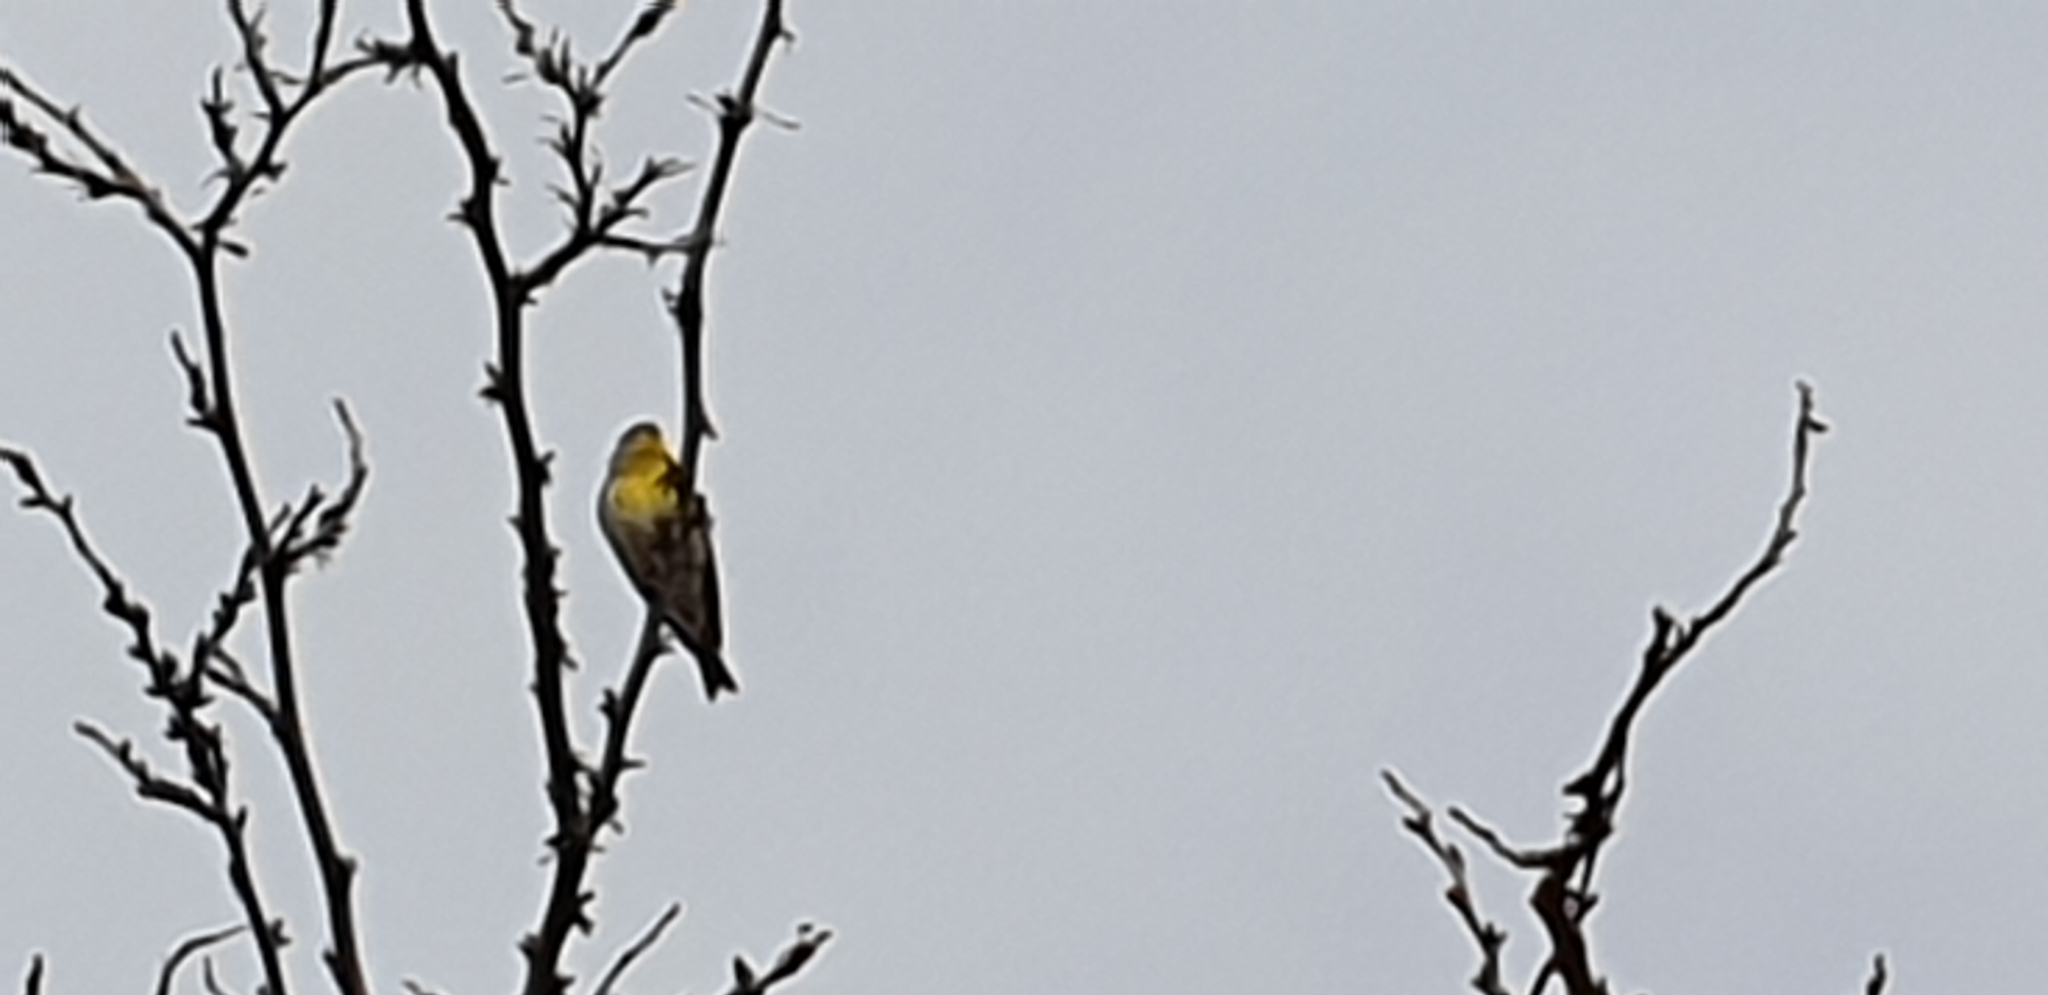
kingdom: Animalia
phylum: Chordata
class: Aves
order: Passeriformes
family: Fringillidae
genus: Serinus
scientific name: Serinus serinus
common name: European serin
